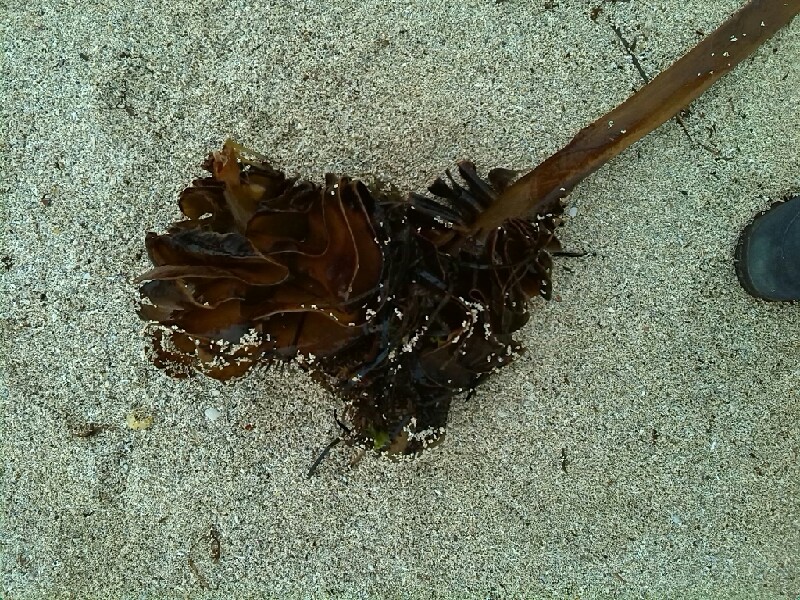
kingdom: Chromista
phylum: Ochrophyta
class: Phaeophyceae
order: Laminariales
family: Alariaceae
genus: Undaria
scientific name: Undaria pinnatifida
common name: Asian kelp
